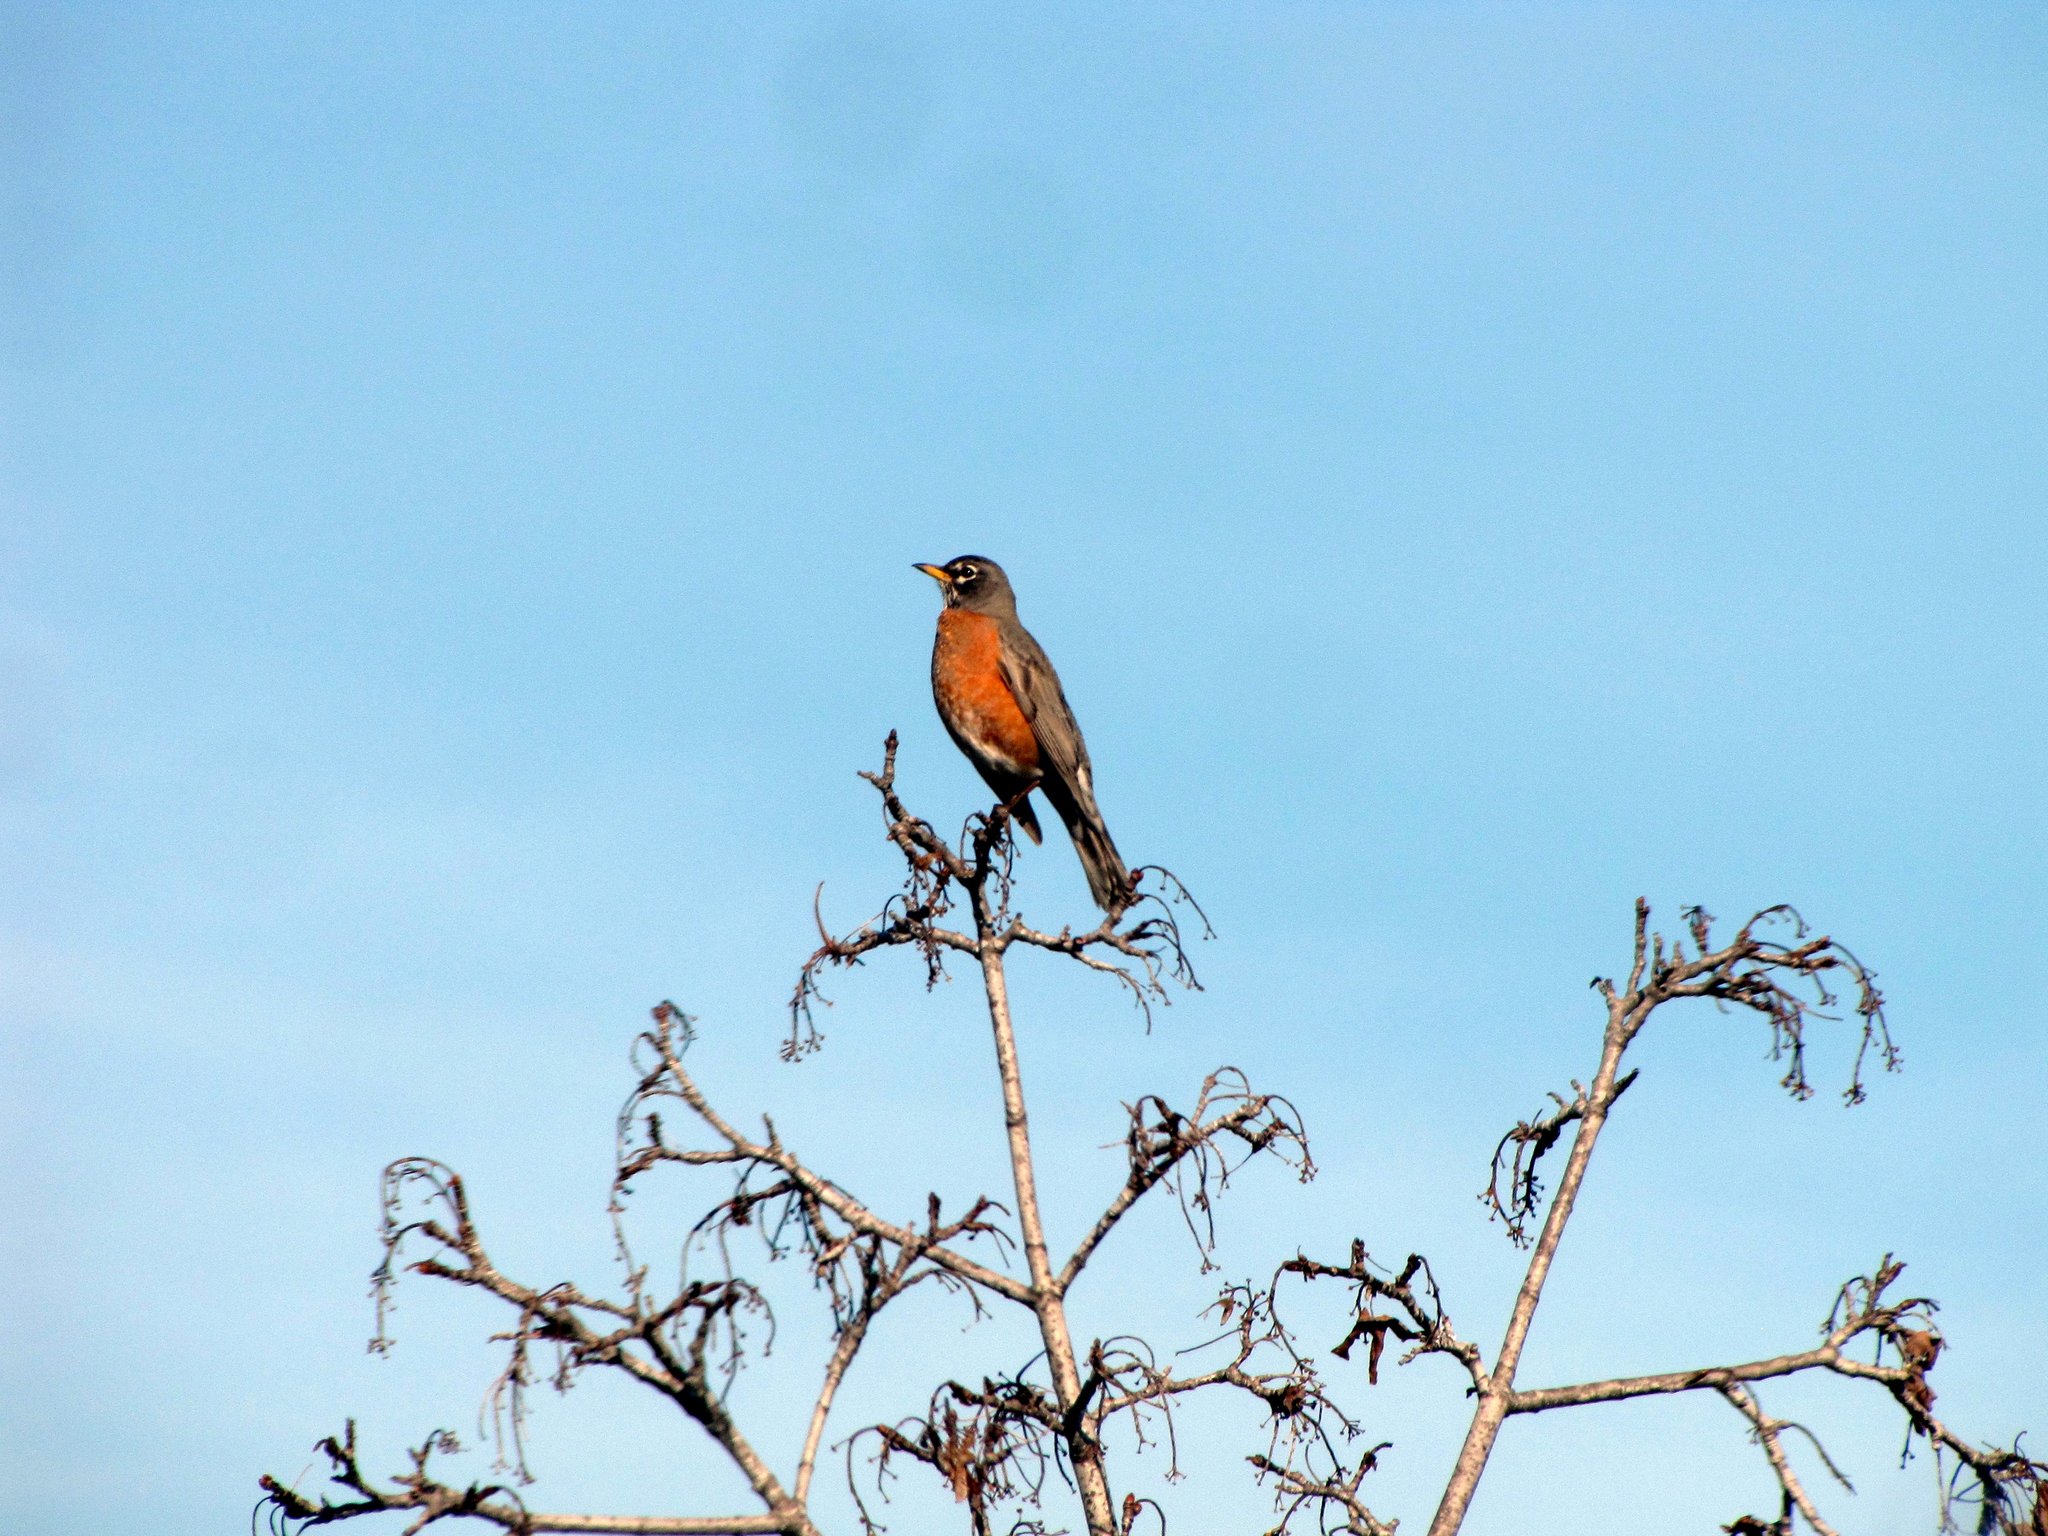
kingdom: Animalia
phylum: Chordata
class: Aves
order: Passeriformes
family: Turdidae
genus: Turdus
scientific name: Turdus migratorius
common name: American robin
